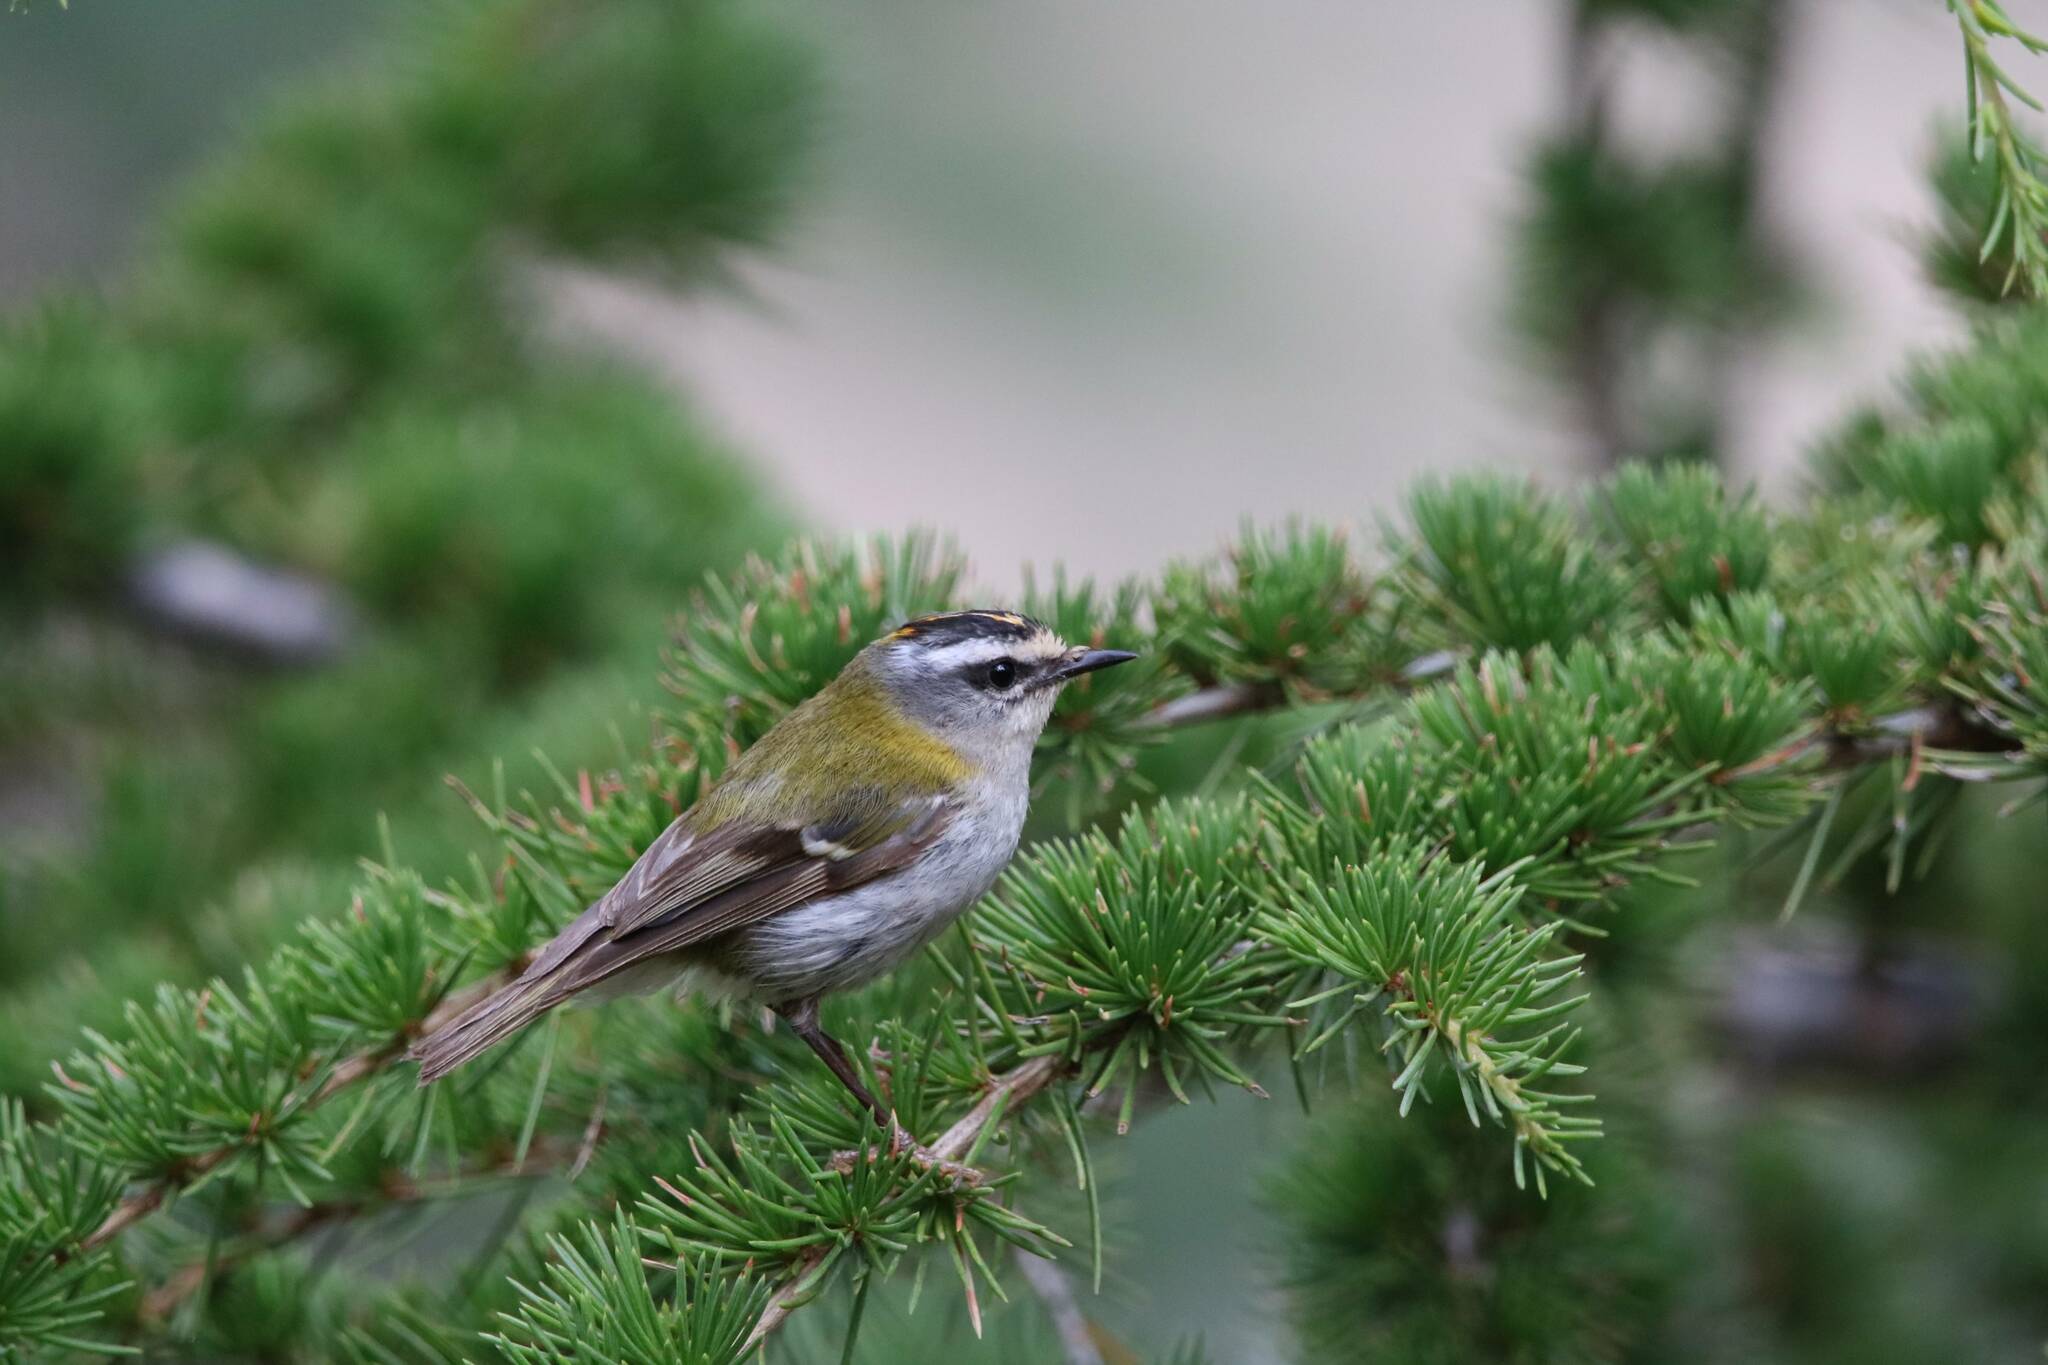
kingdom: Animalia
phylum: Chordata
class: Aves
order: Passeriformes
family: Regulidae
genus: Regulus
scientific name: Regulus ignicapilla
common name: Firecrest
